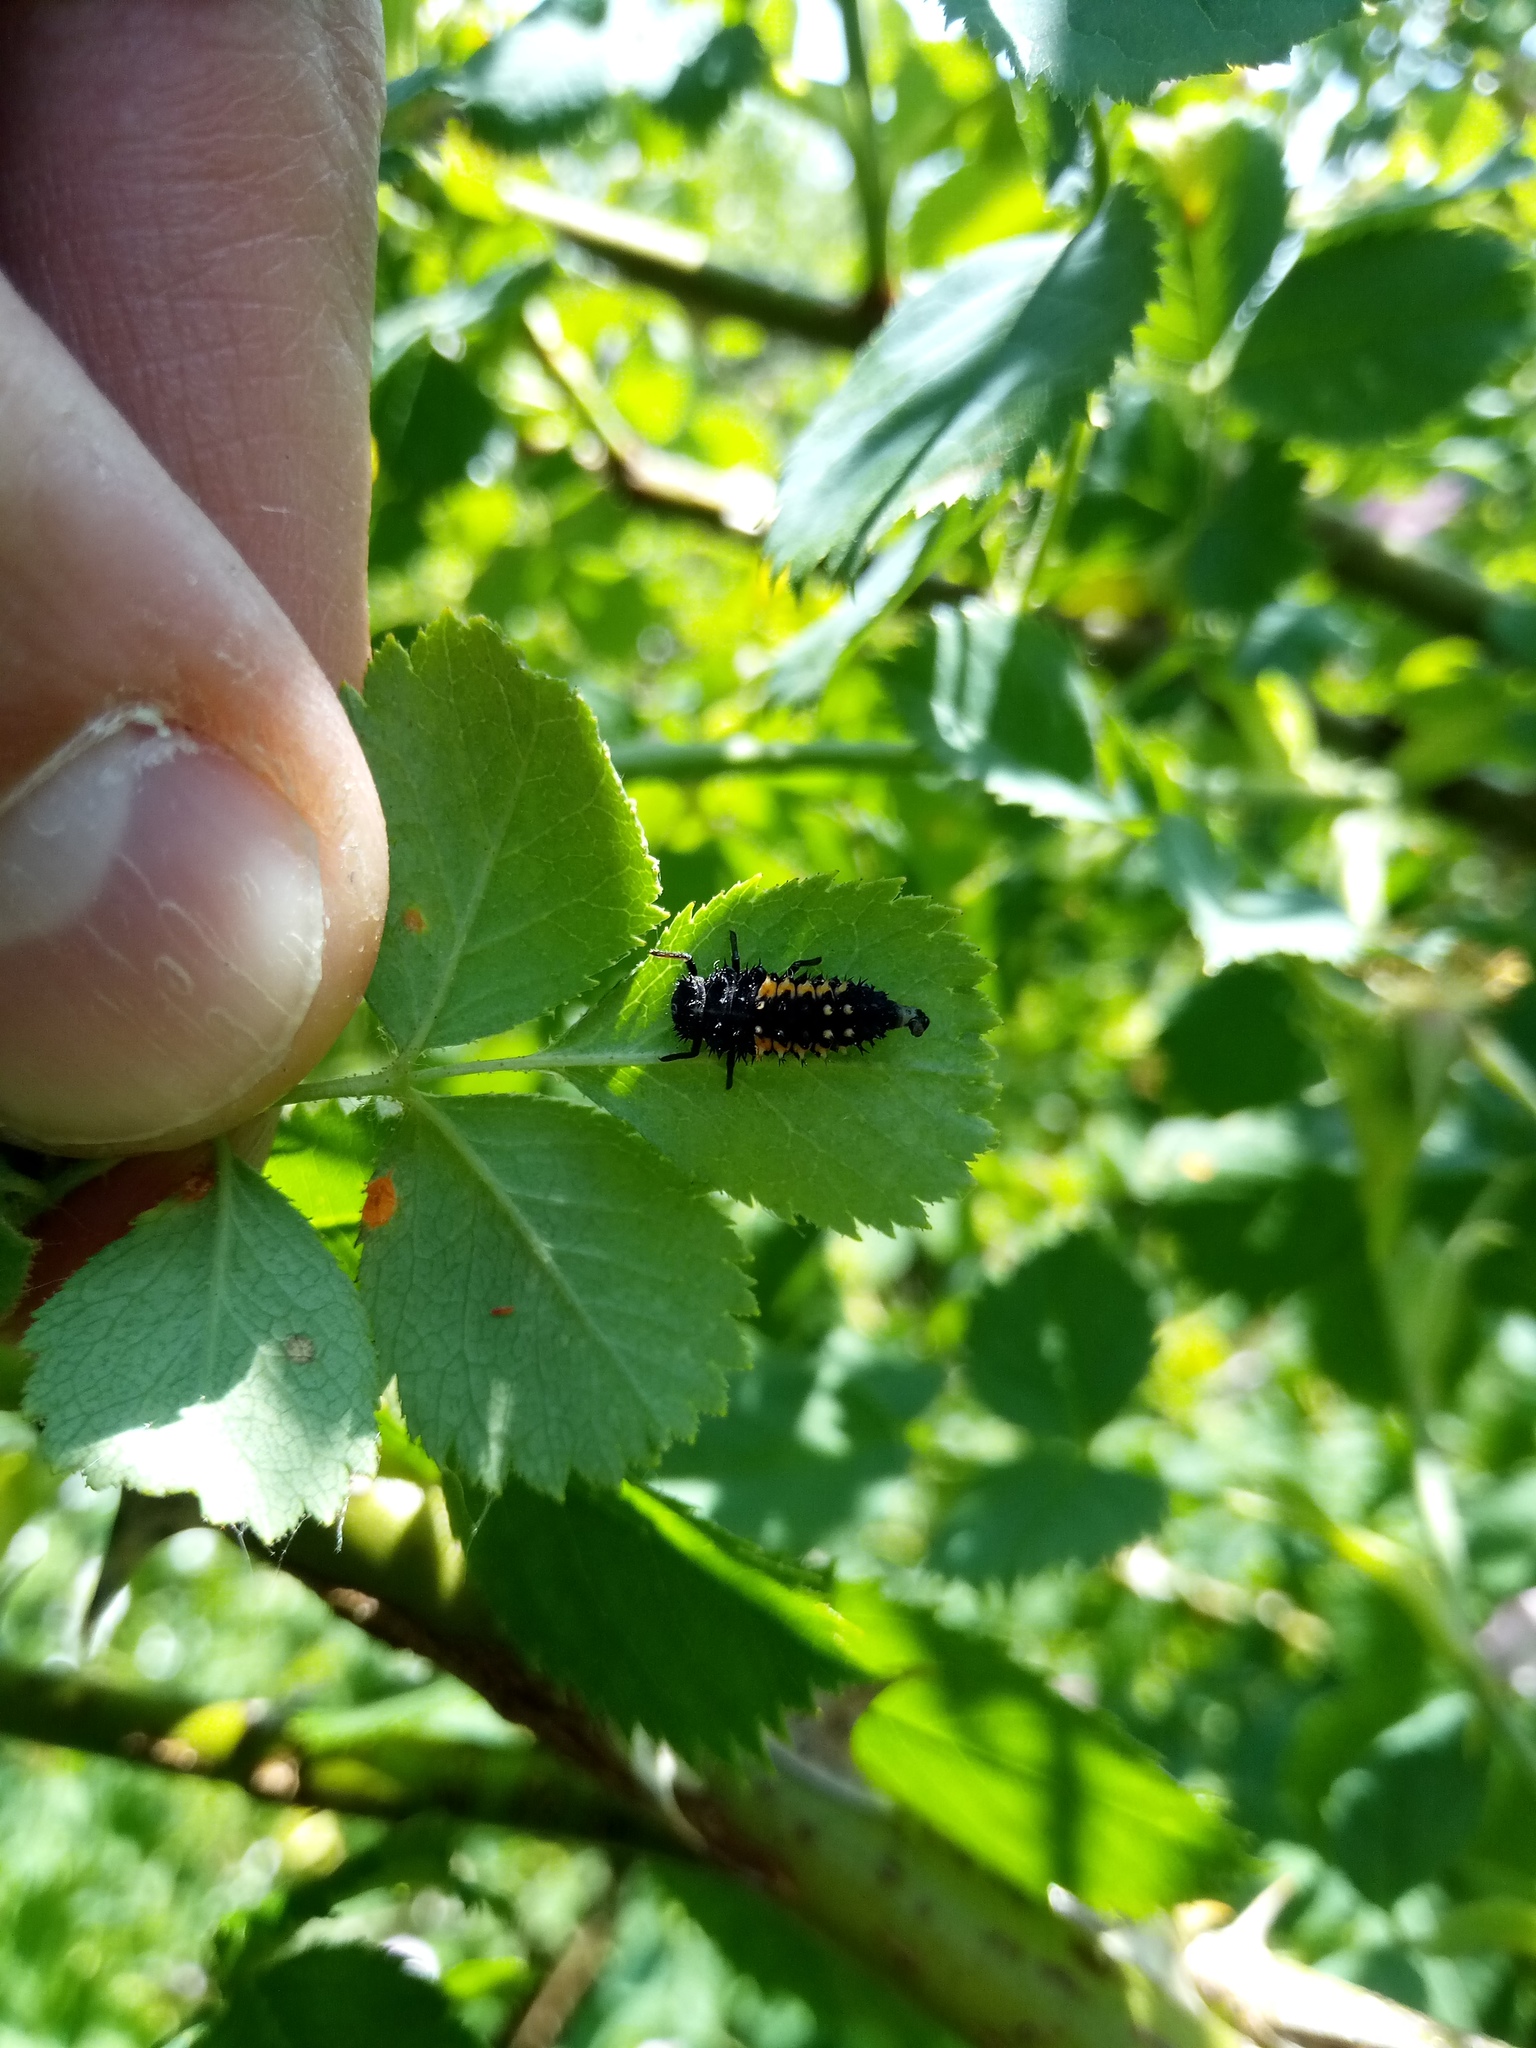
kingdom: Animalia
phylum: Arthropoda
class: Insecta
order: Coleoptera
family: Coccinellidae
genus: Harmonia
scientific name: Harmonia axyridis
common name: Harlequin ladybird
